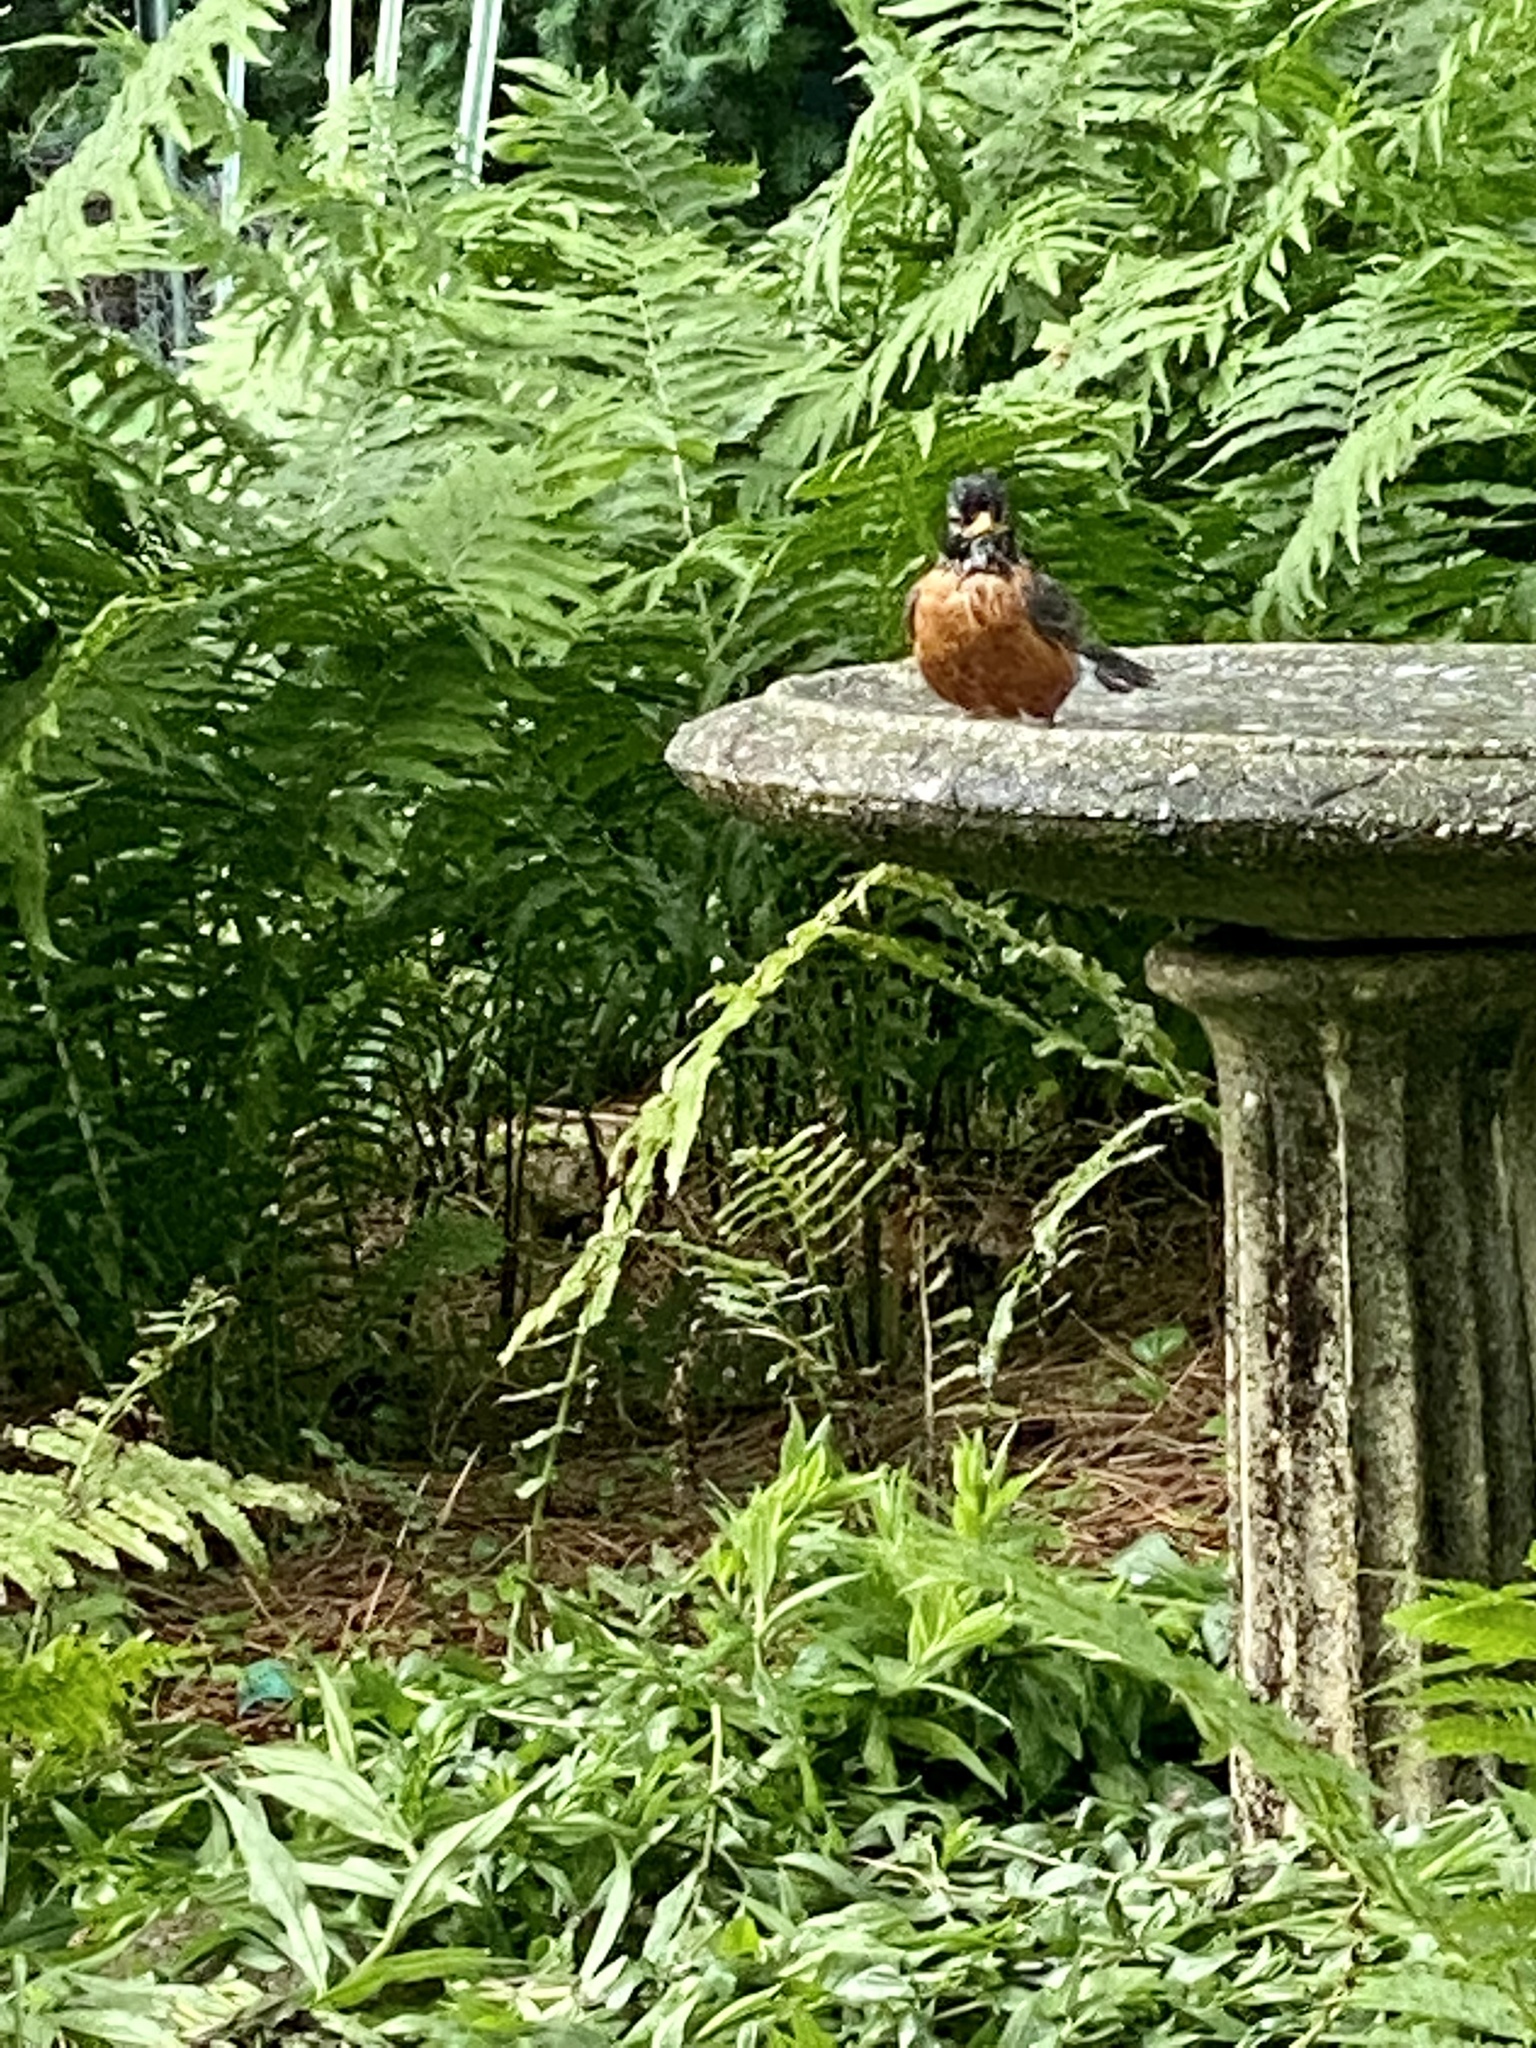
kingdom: Animalia
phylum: Chordata
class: Aves
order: Passeriformes
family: Turdidae
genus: Turdus
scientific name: Turdus migratorius
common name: American robin
